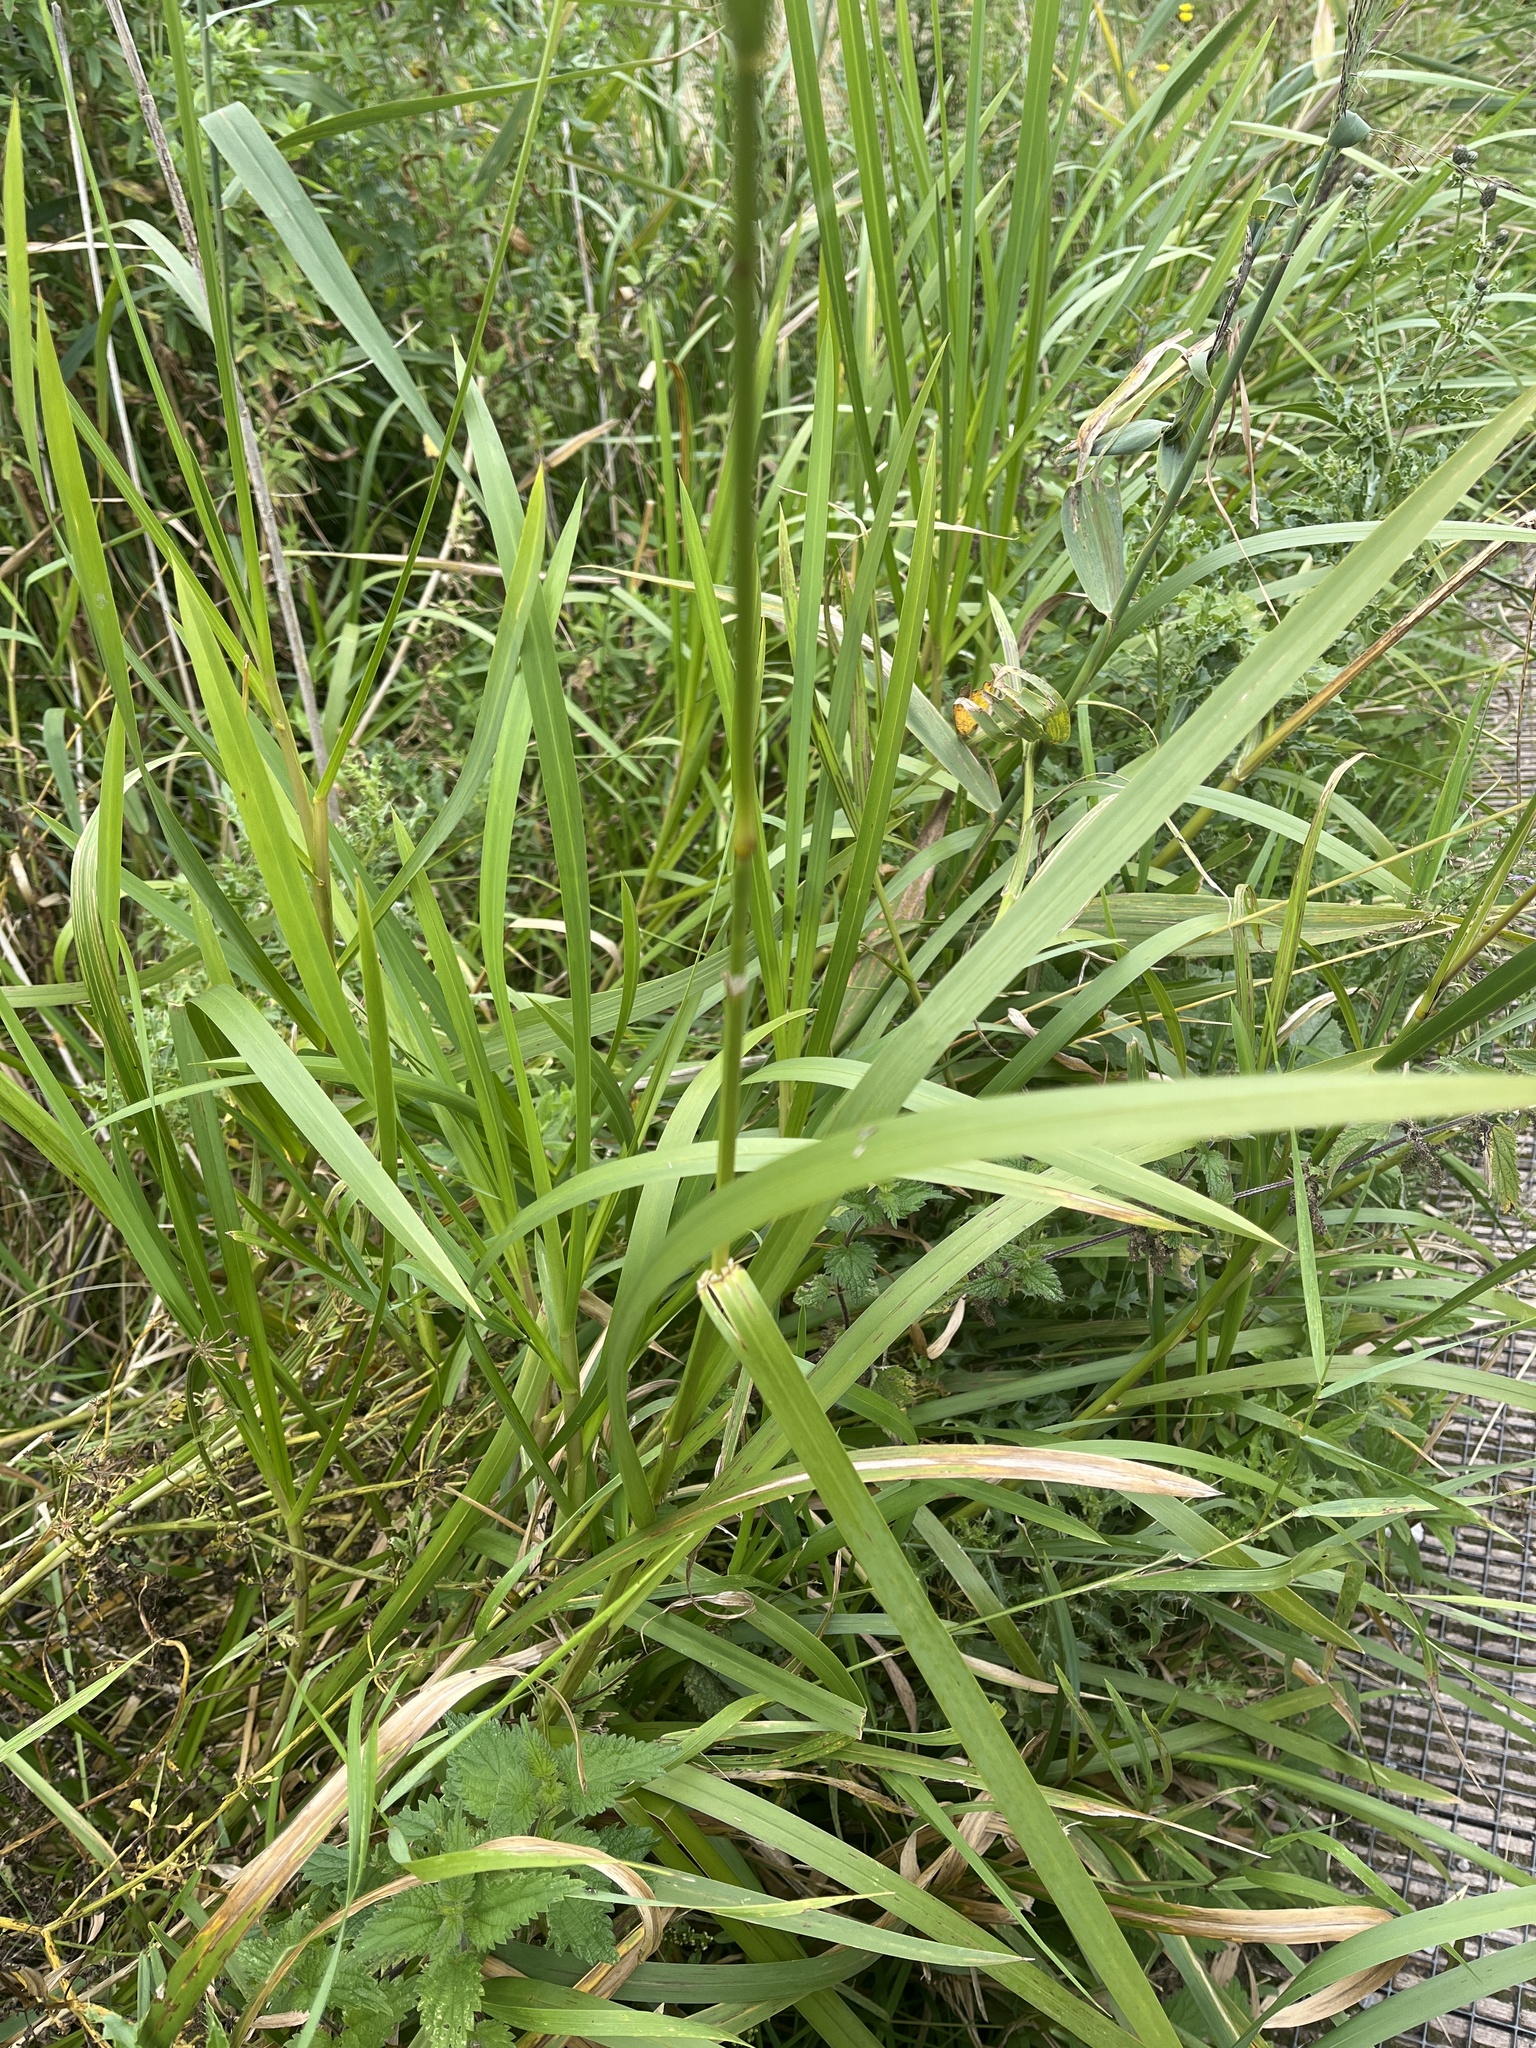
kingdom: Plantae
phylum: Tracheophyta
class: Liliopsida
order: Poales
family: Poaceae
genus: Glyceria
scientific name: Glyceria maxima
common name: Reed mannagrass
